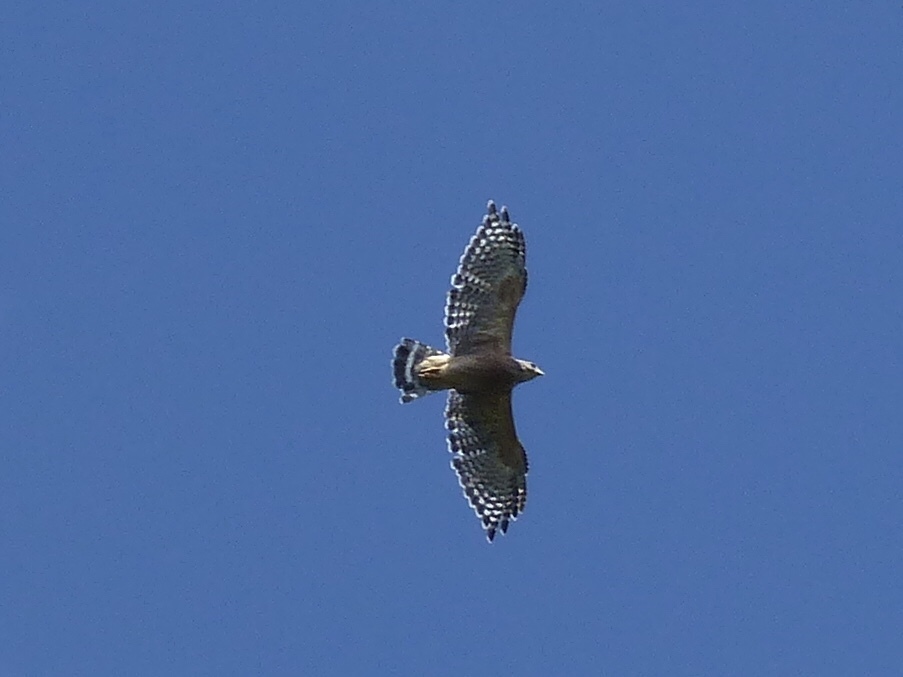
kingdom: Animalia
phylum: Chordata
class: Aves
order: Accipitriformes
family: Accipitridae
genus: Buteo
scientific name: Buteo lineatus
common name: Red-shouldered hawk
